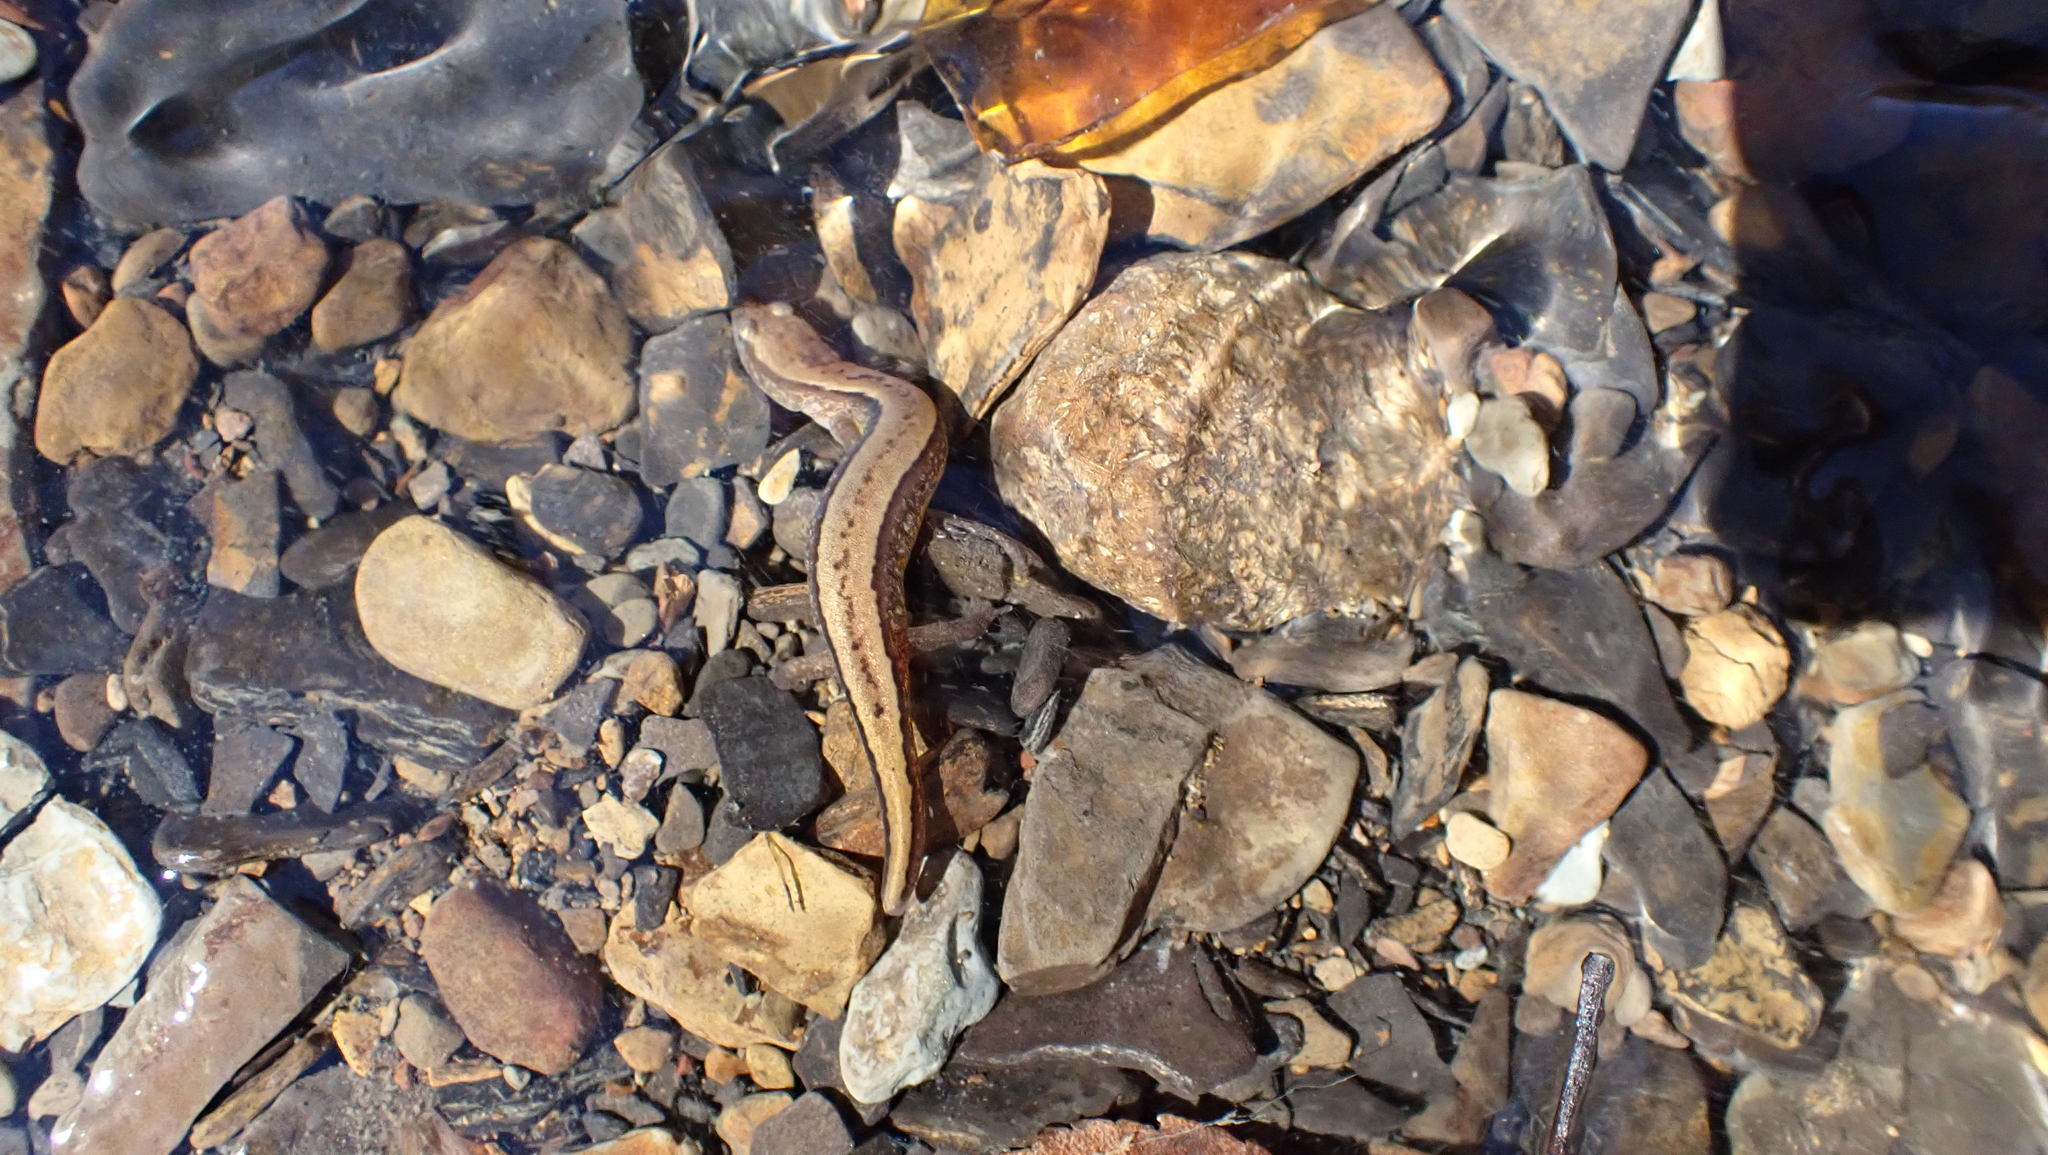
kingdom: Animalia
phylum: Chordata
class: Amphibia
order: Caudata
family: Plethodontidae
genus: Eurycea
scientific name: Eurycea cirrigera
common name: Southern two-lined salamander
